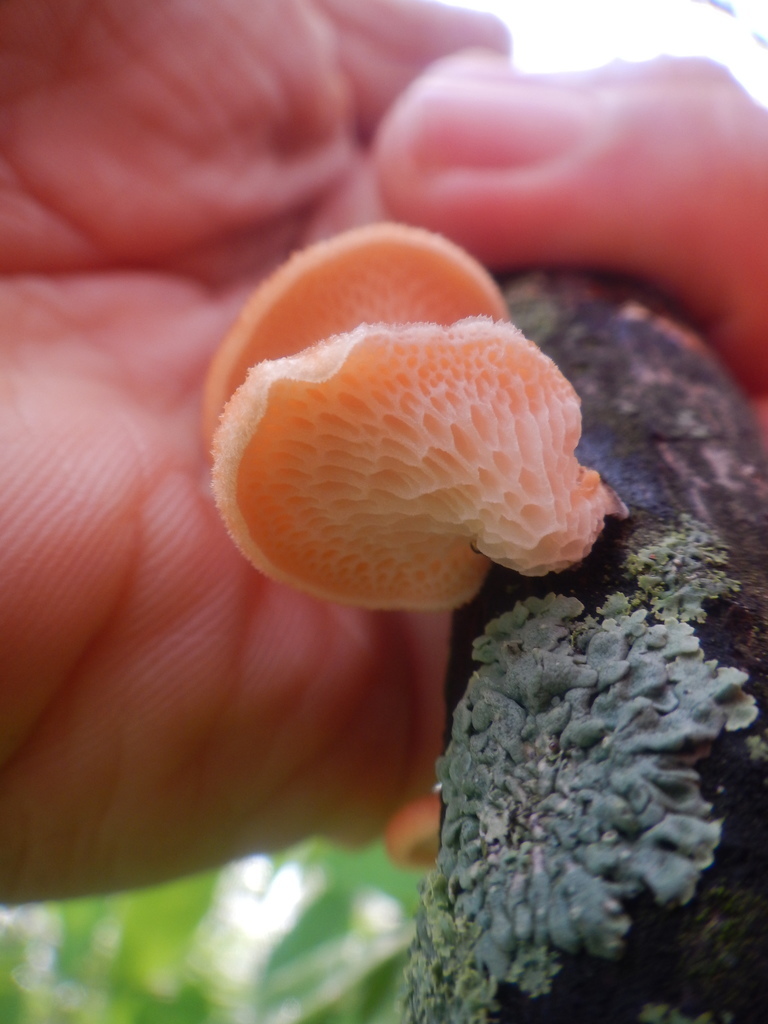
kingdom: Fungi
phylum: Basidiomycota
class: Agaricomycetes
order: Polyporales
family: Polyporaceae
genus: Neofavolus
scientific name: Neofavolus alveolaris
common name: Hexagonal-pored polypore
